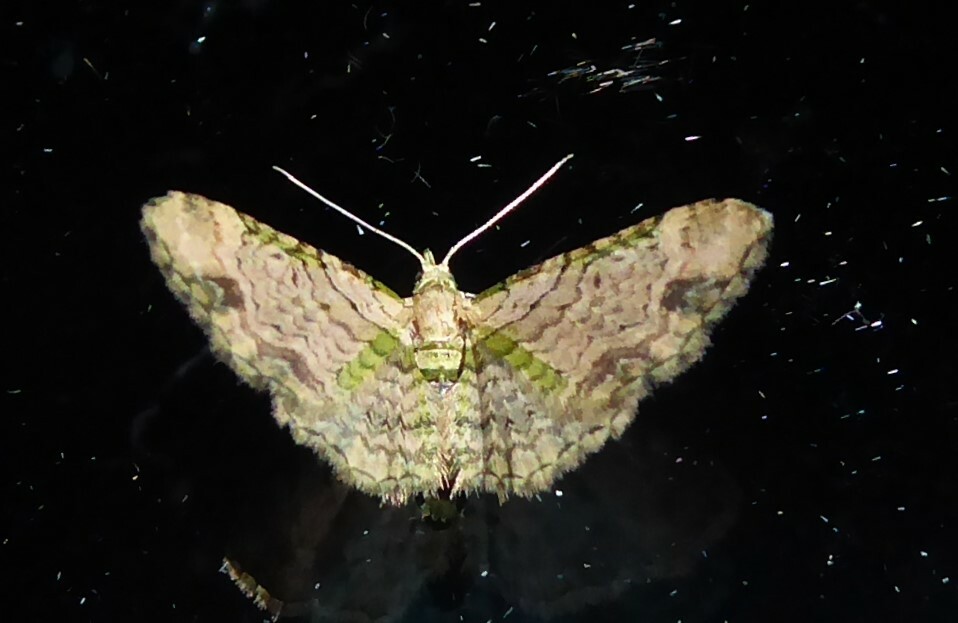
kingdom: Animalia
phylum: Arthropoda
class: Insecta
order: Lepidoptera
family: Geometridae
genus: Chloroclystis
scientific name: Chloroclystis
